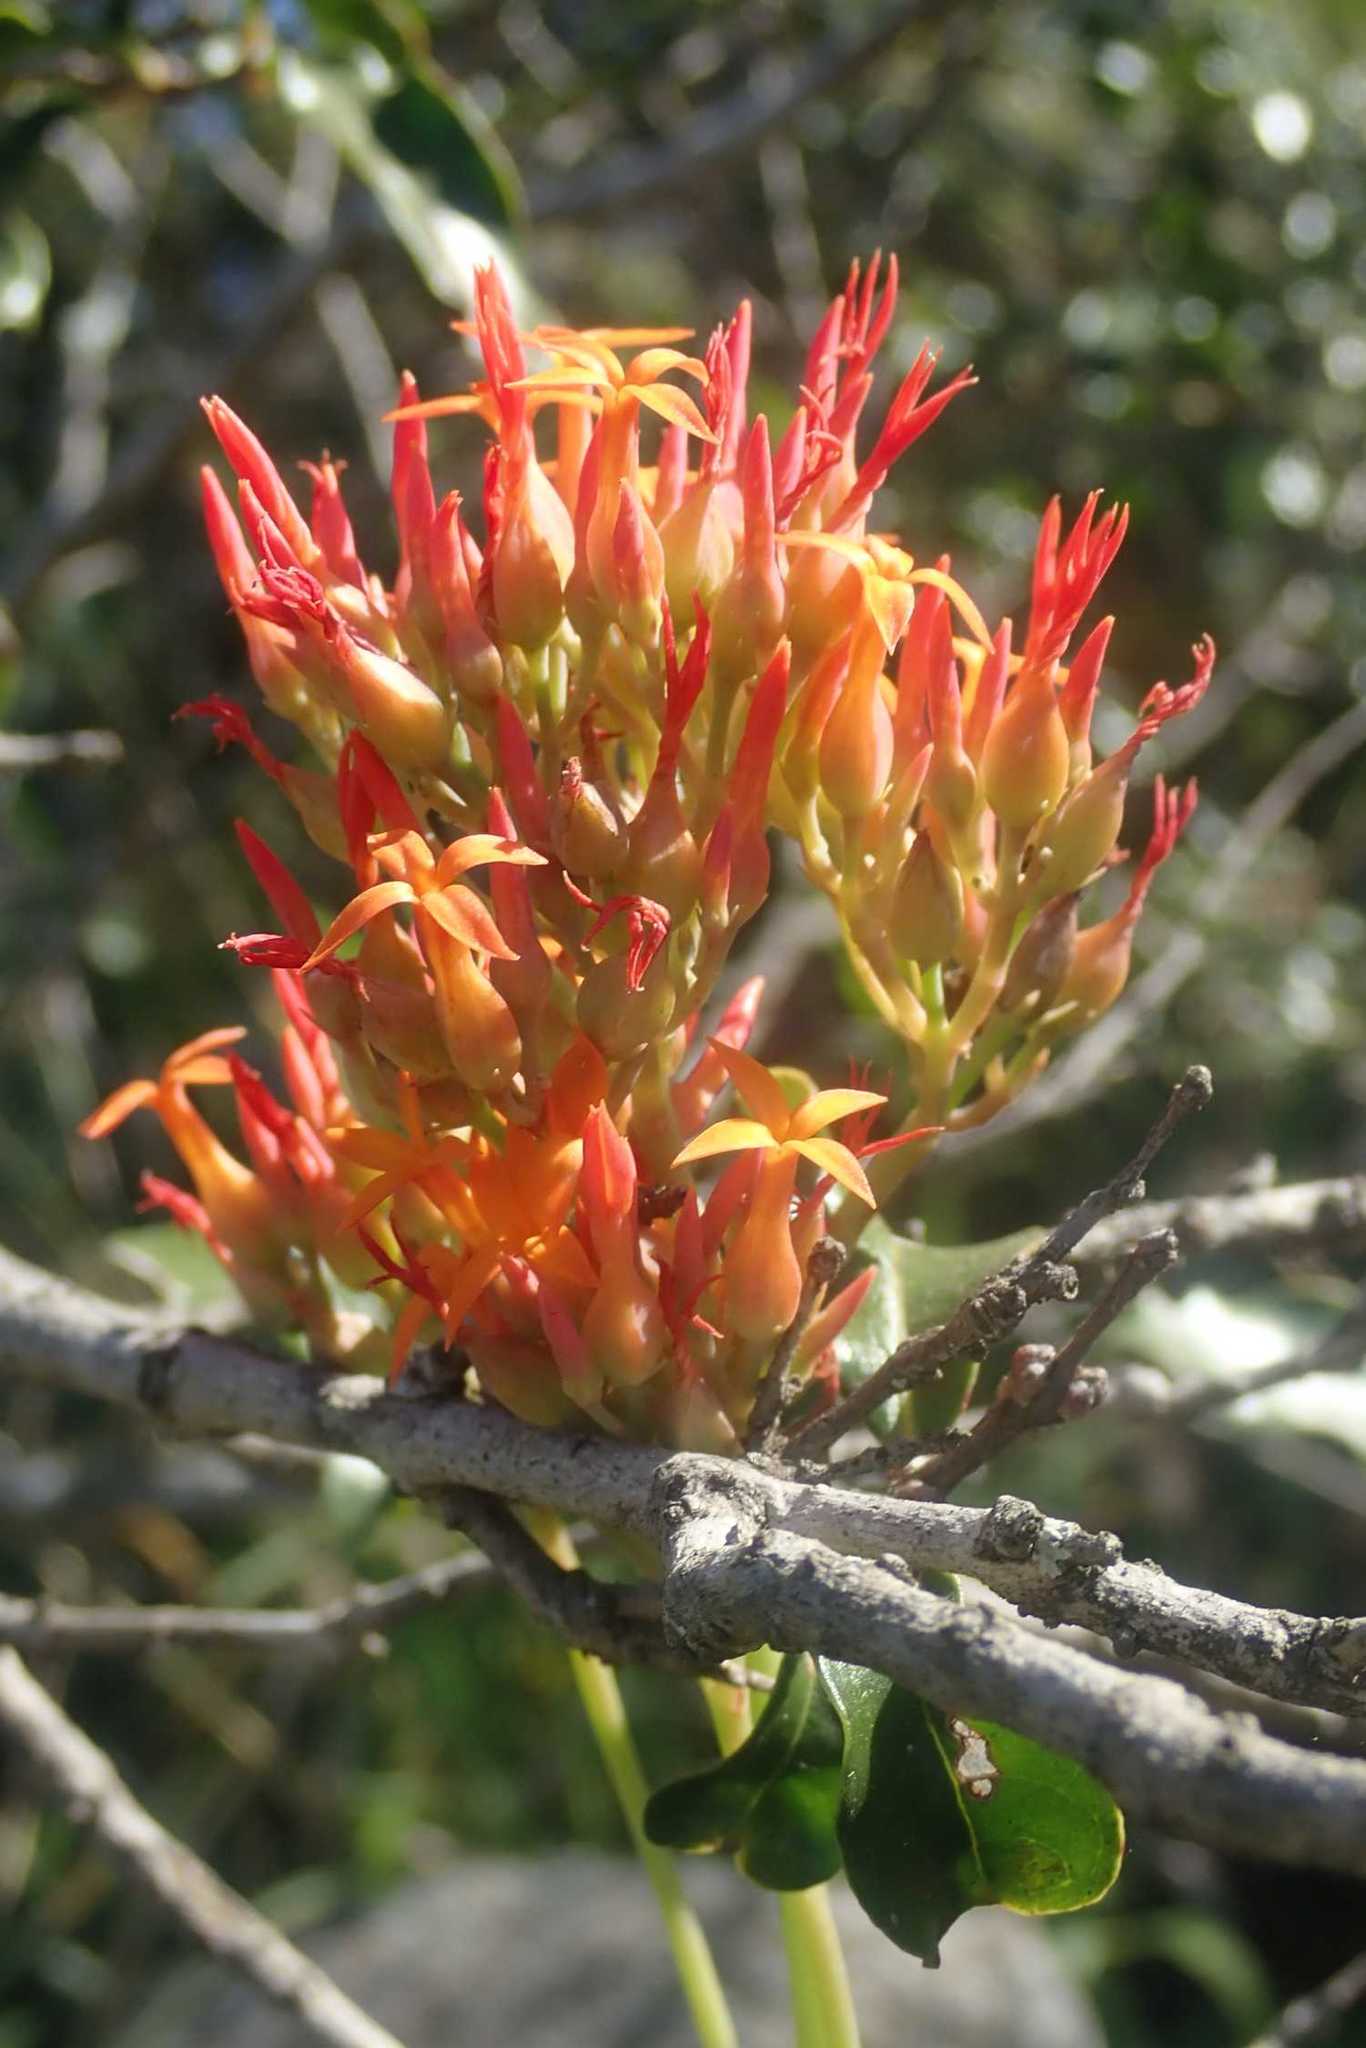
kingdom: Plantae
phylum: Tracheophyta
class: Magnoliopsida
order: Saxifragales
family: Crassulaceae
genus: Kalanchoe
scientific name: Kalanchoe klopperae
